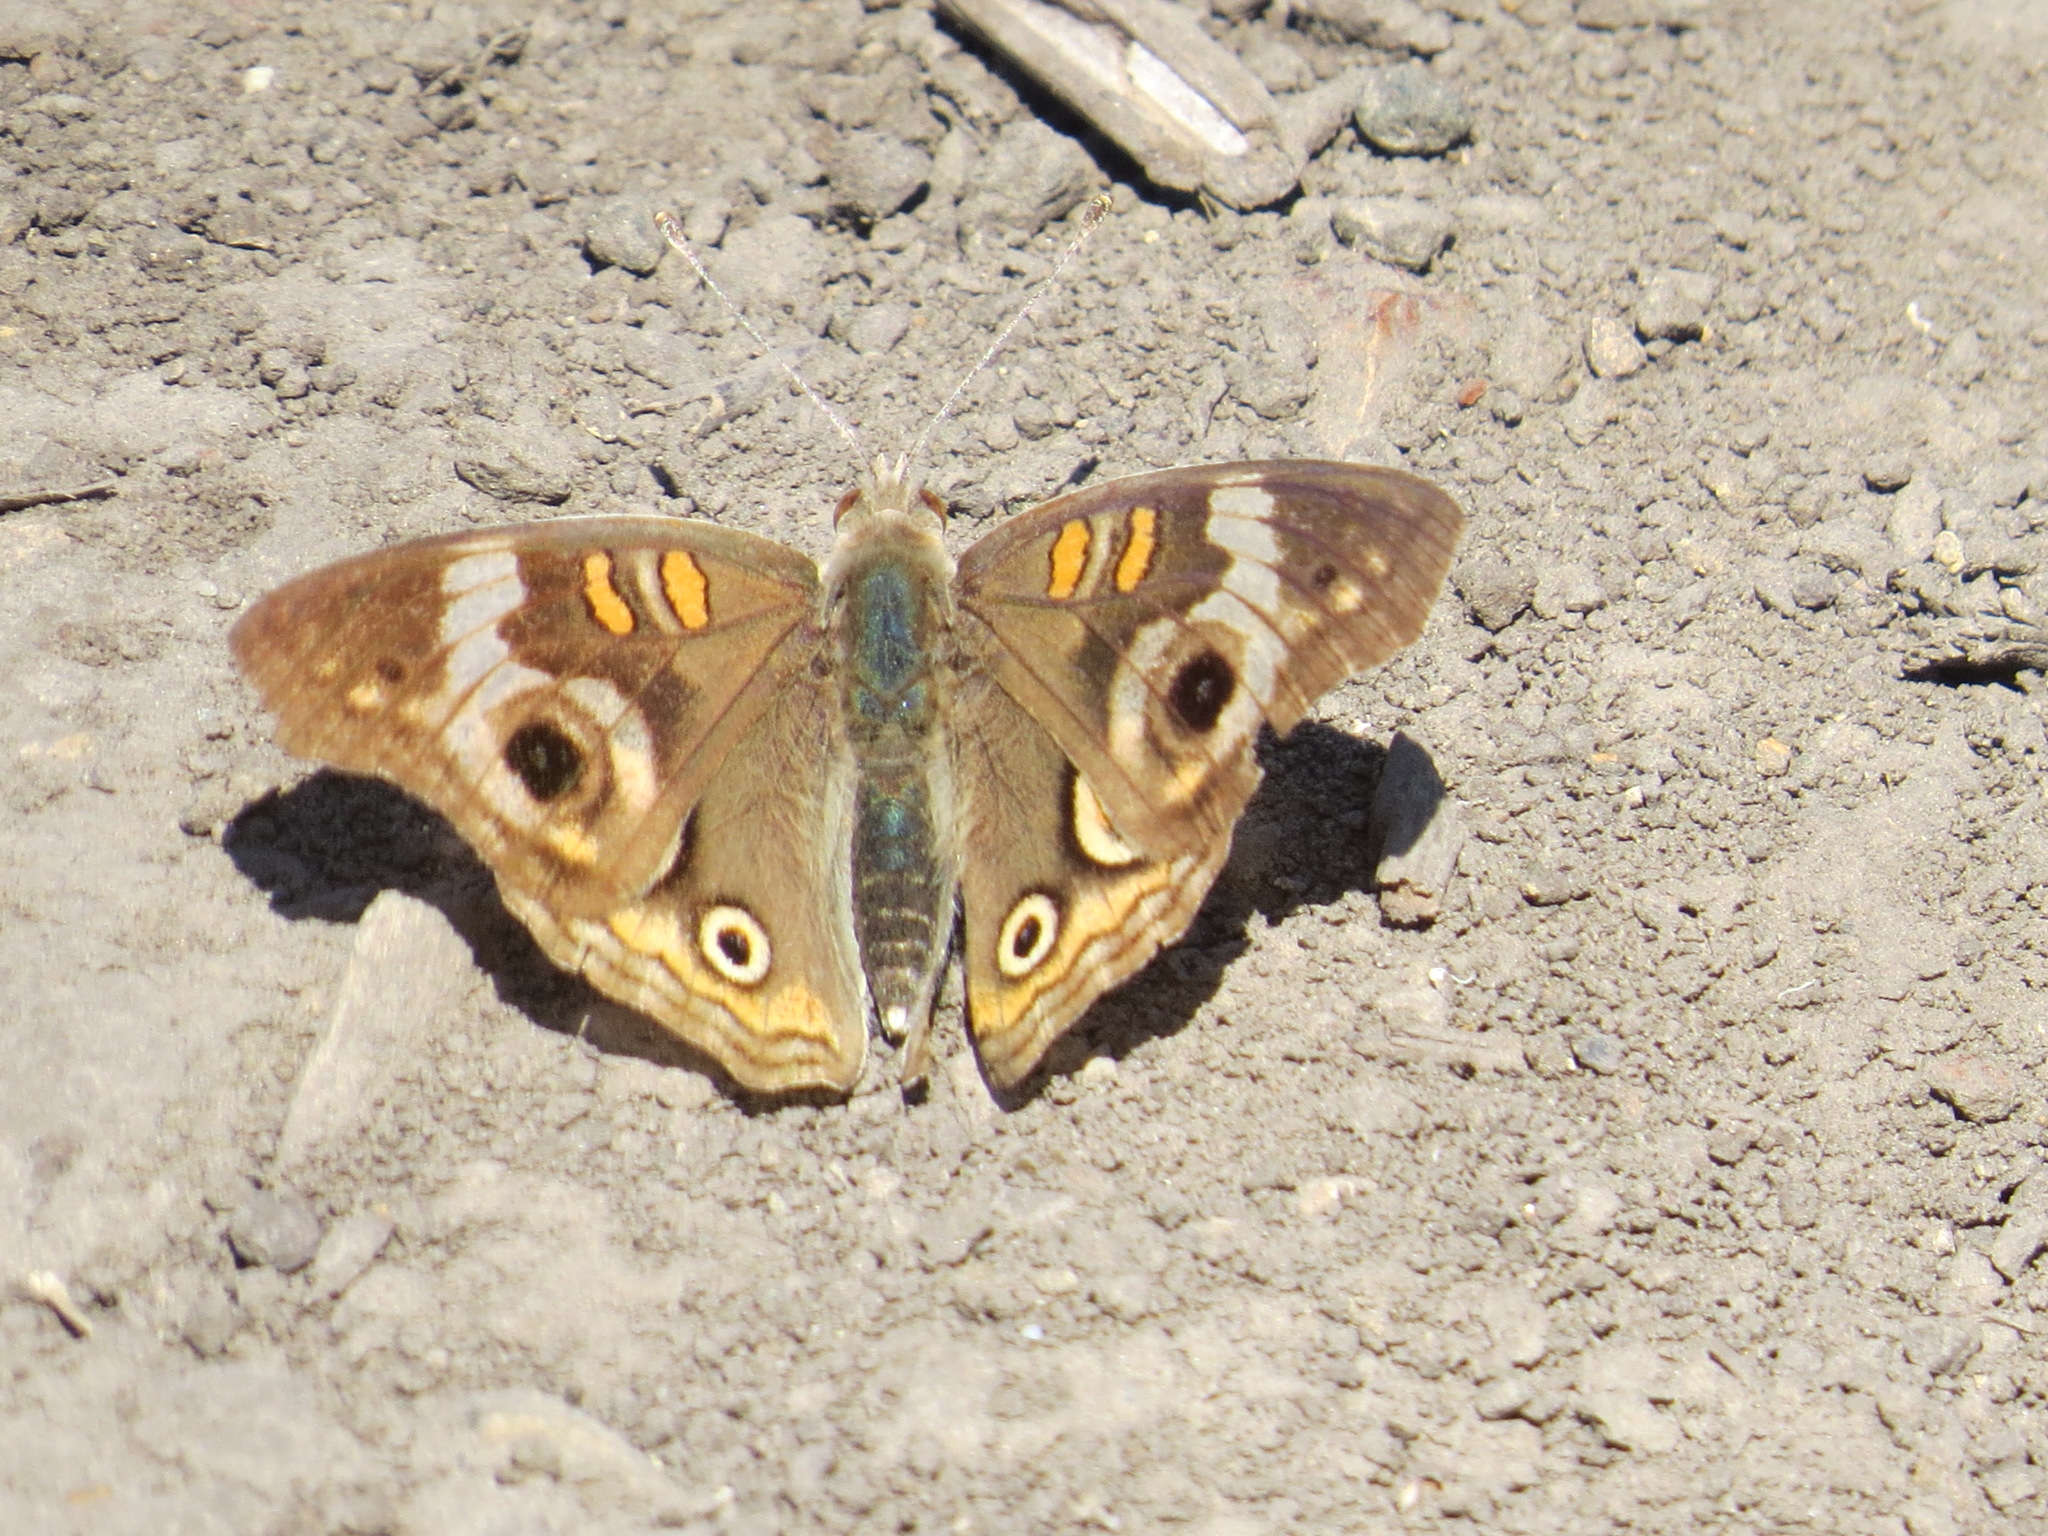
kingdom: Animalia
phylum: Arthropoda
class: Insecta
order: Lepidoptera
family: Nymphalidae
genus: Junonia
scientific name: Junonia grisea
